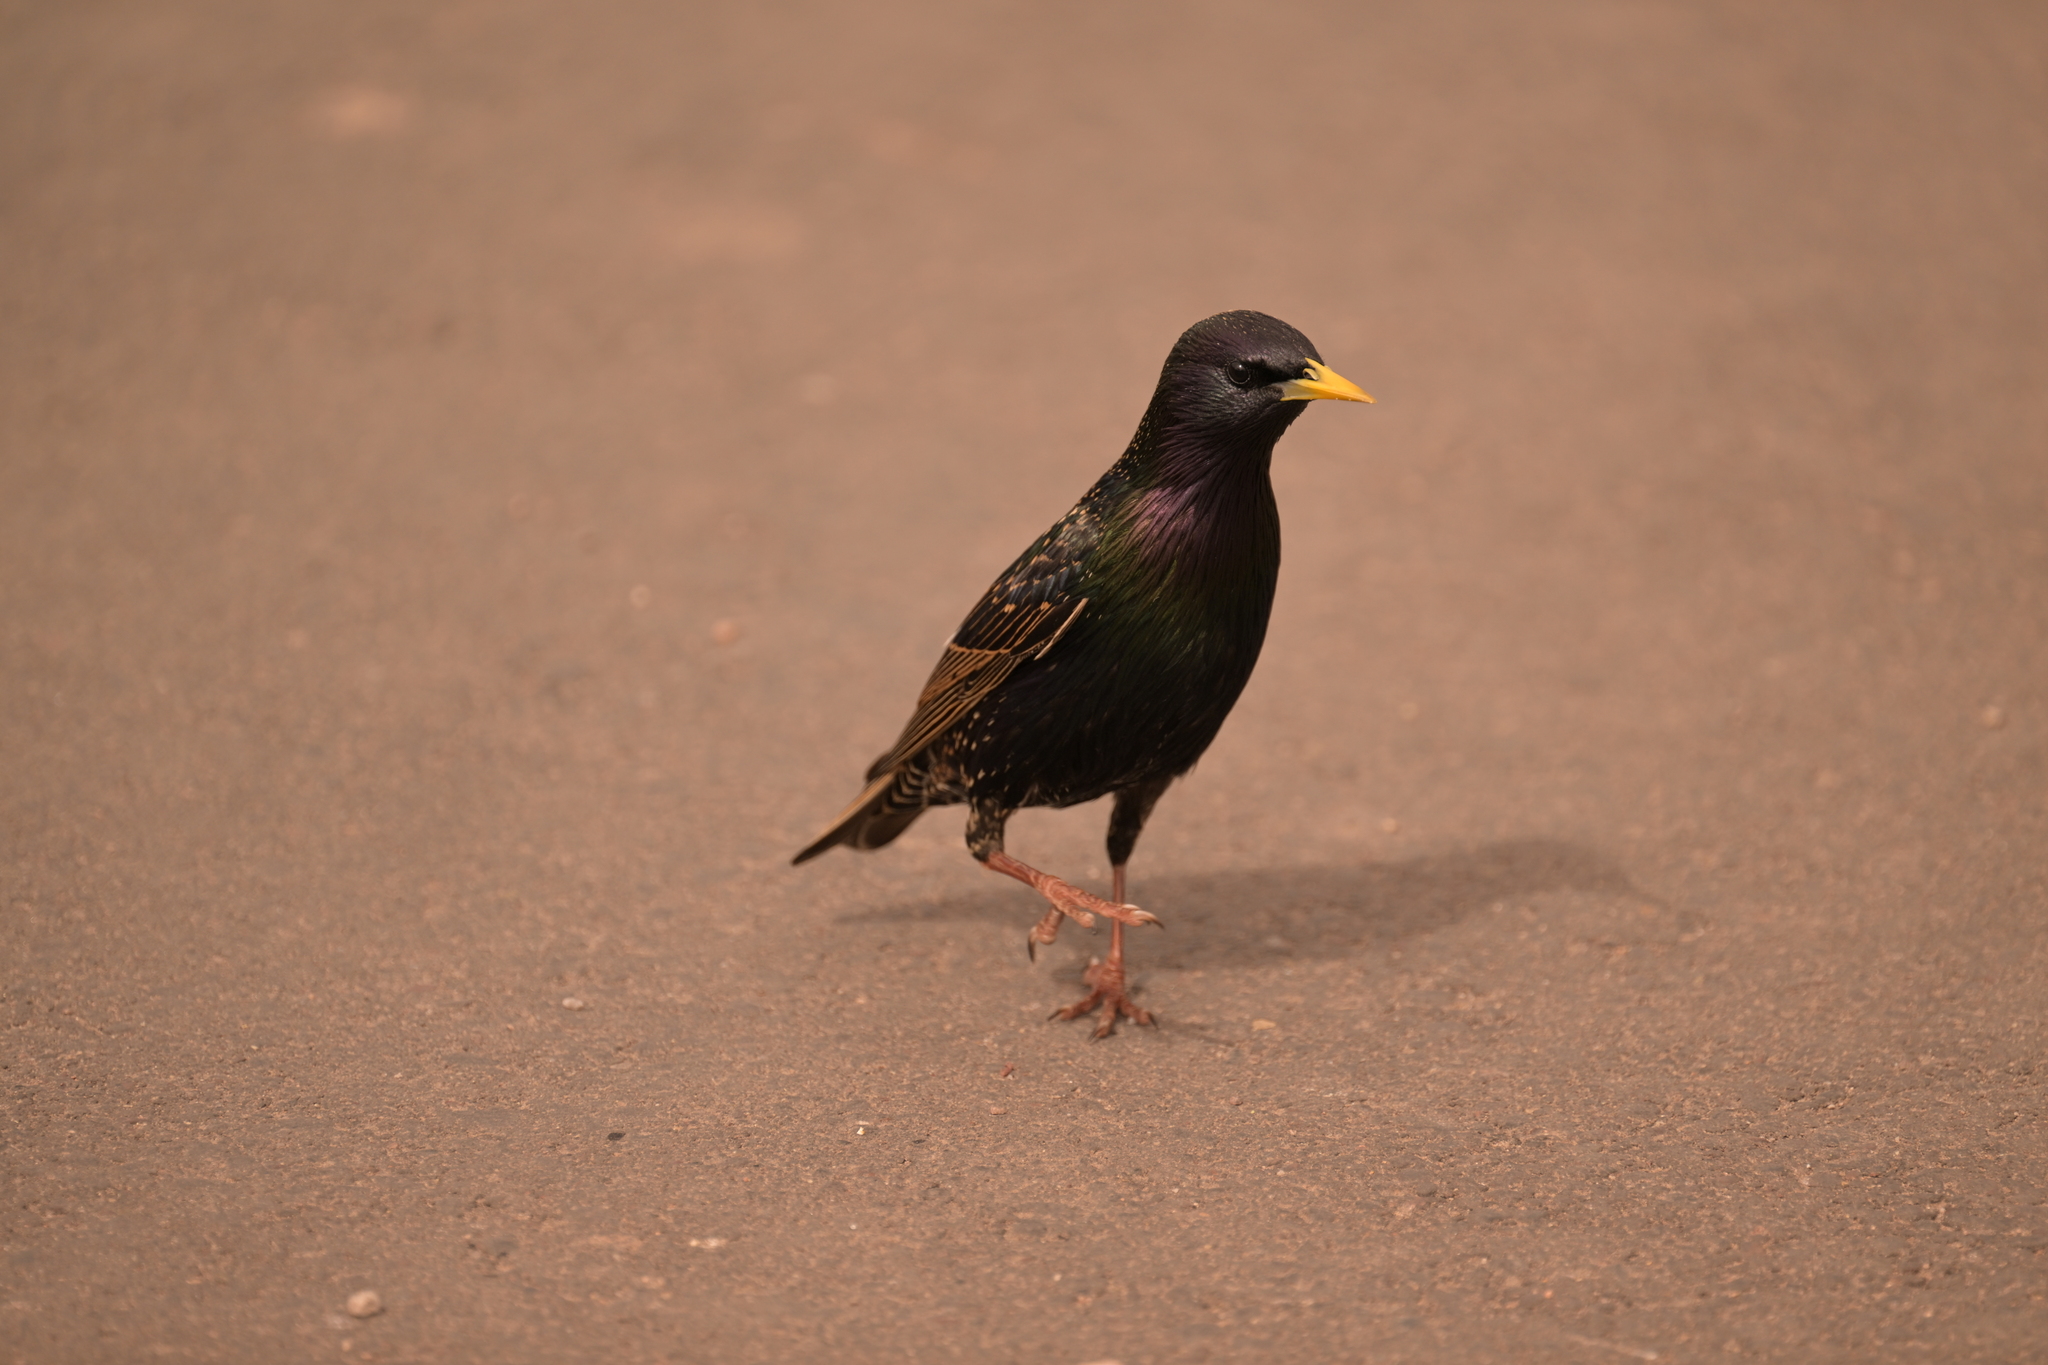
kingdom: Animalia
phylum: Chordata
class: Aves
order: Passeriformes
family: Sturnidae
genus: Sturnus
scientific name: Sturnus vulgaris
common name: Common starling
